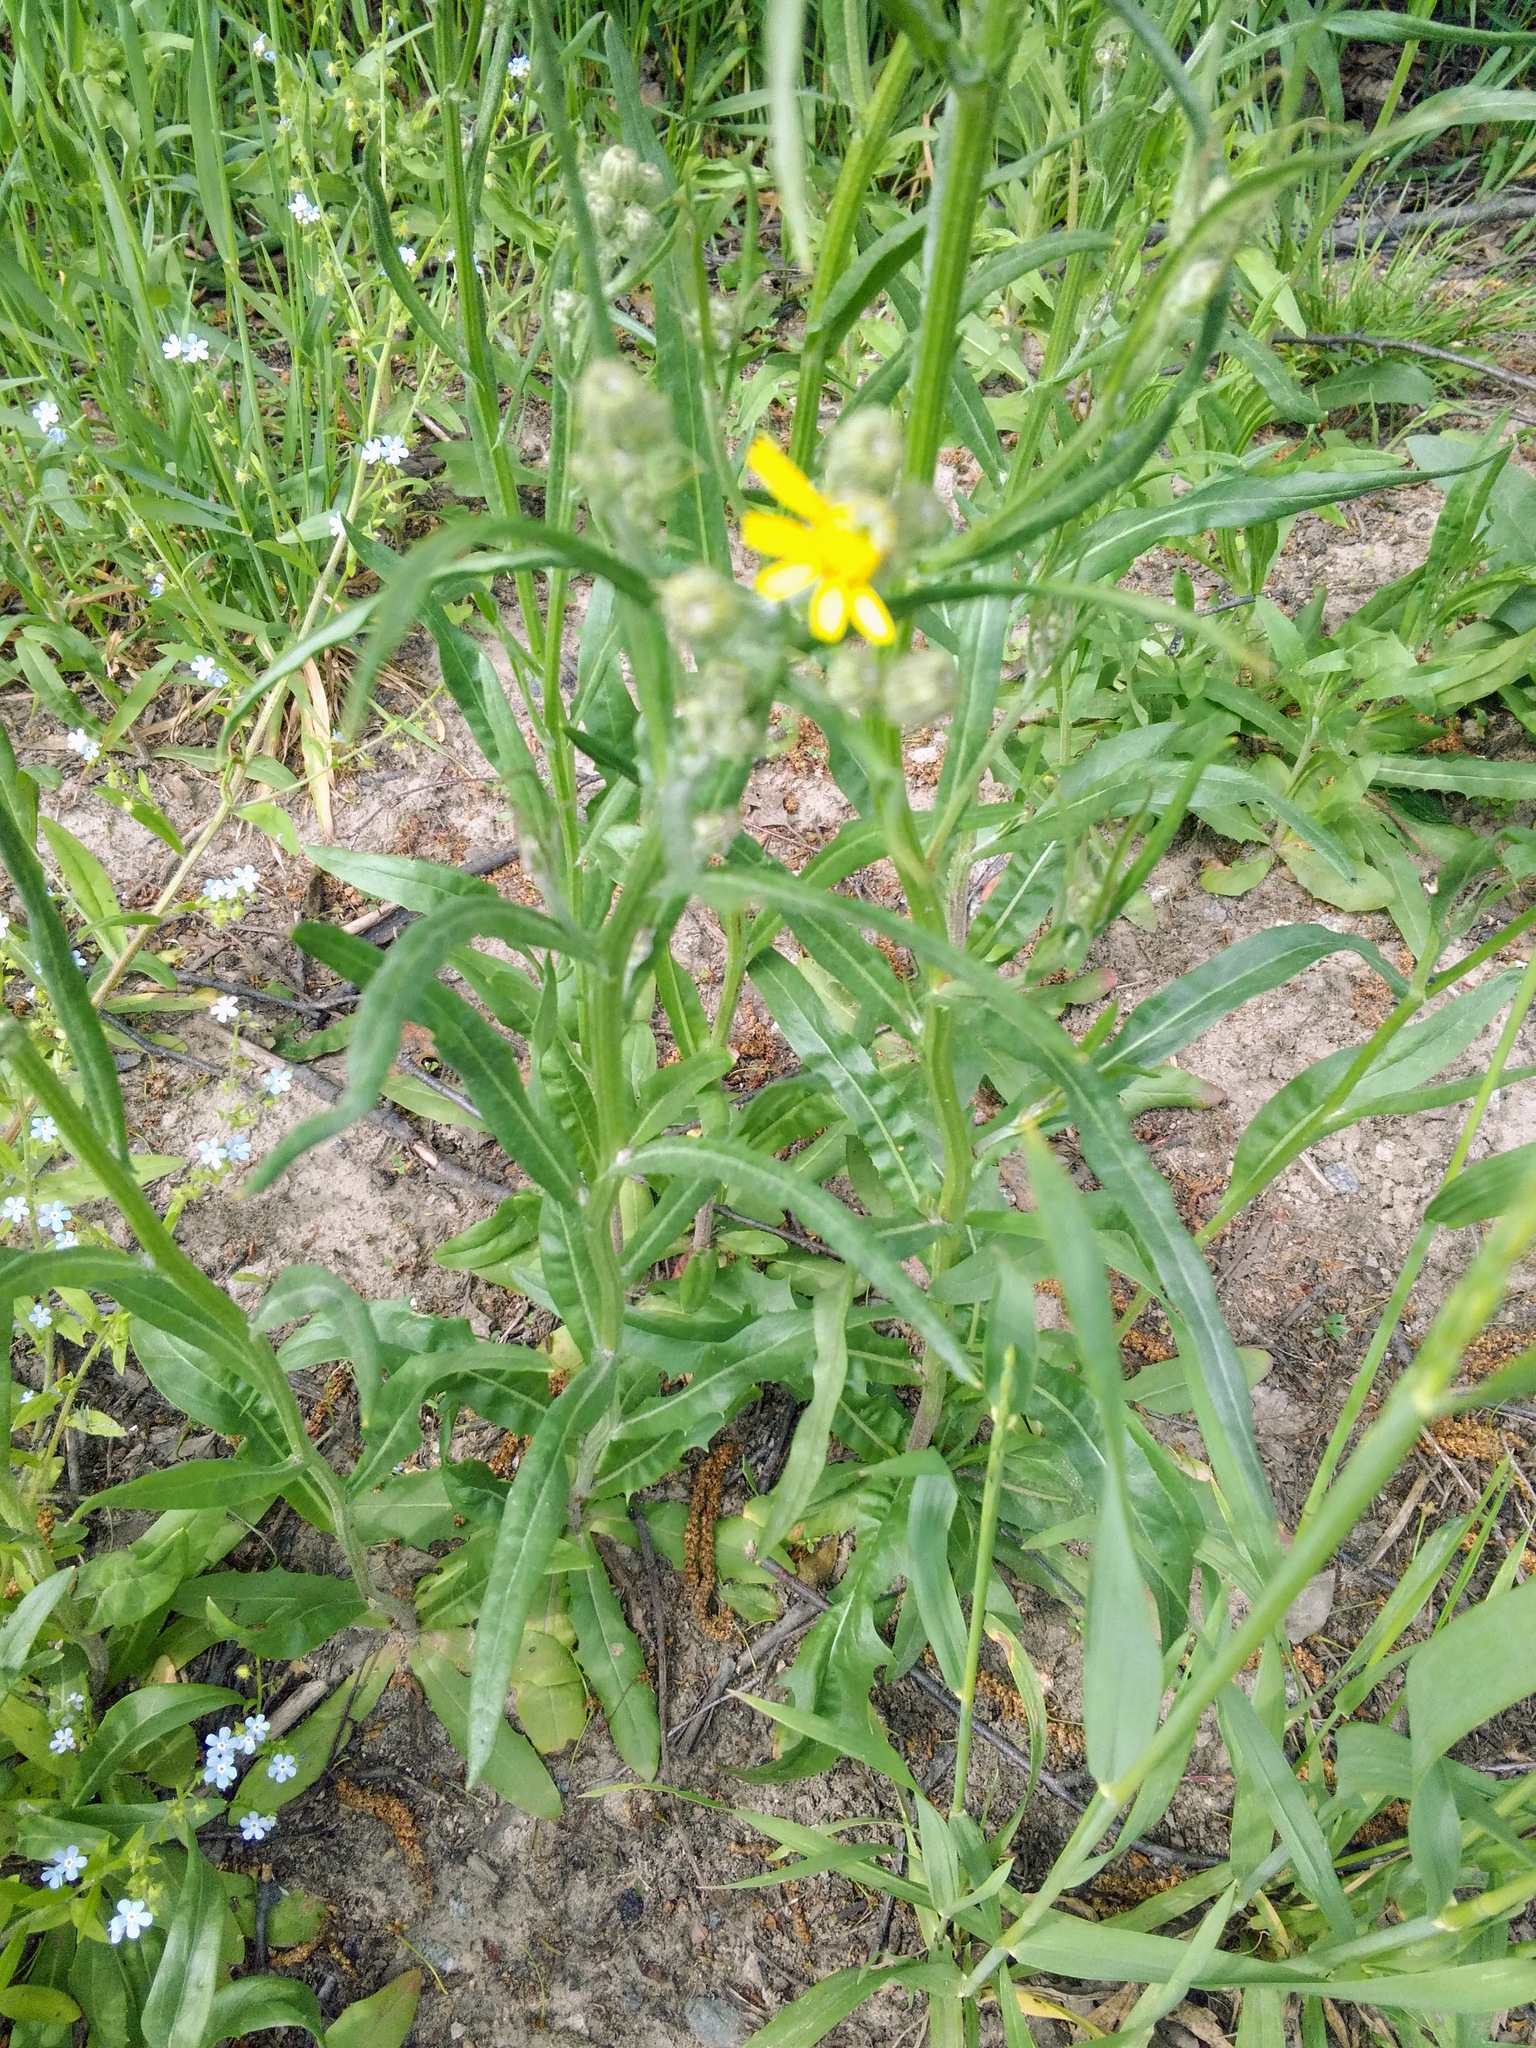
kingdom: Plantae
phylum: Tracheophyta
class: Magnoliopsida
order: Asterales
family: Asteraceae
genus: Crepis
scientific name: Crepis tectorum
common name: Narrow-leaved hawk's-beard
